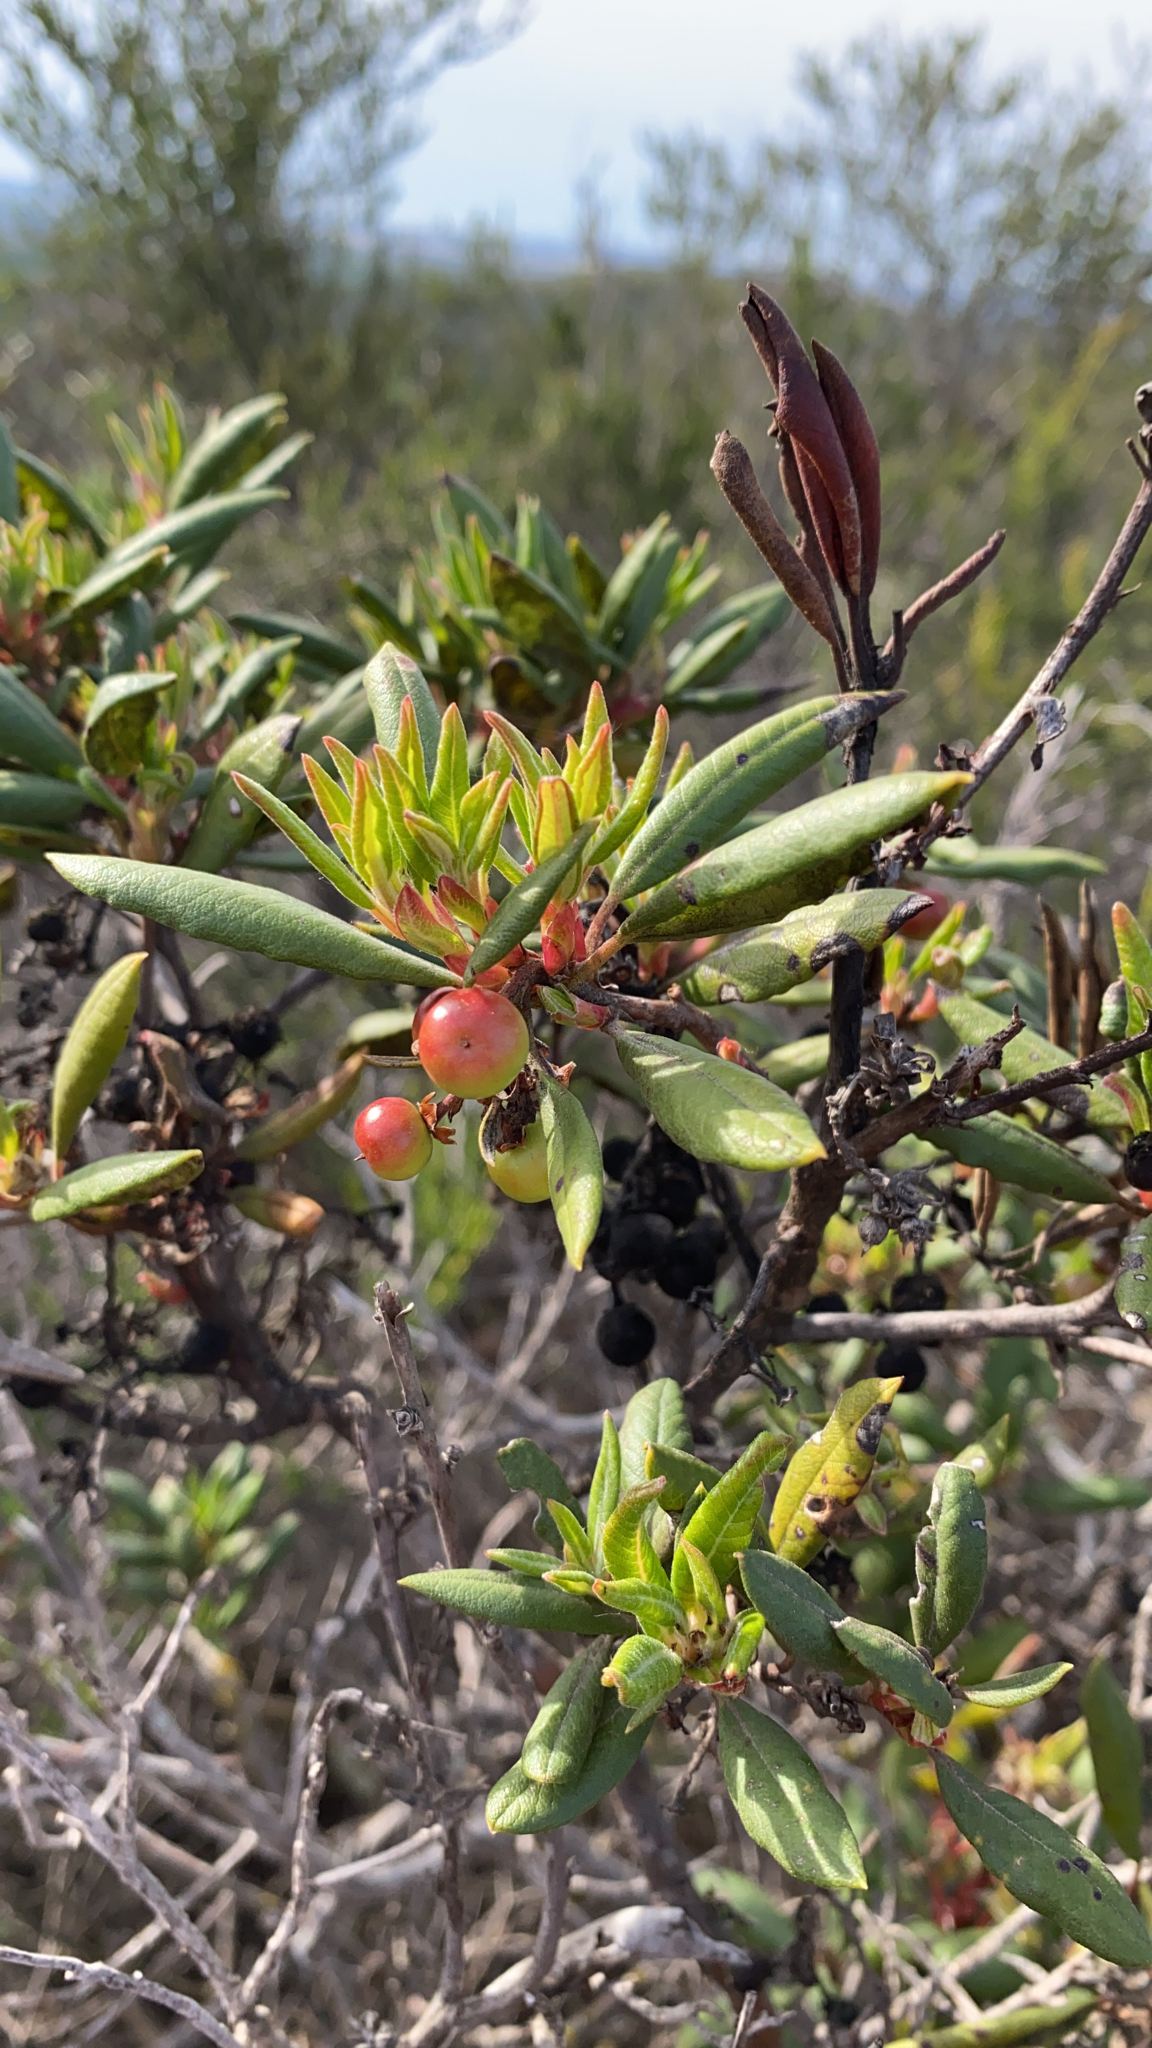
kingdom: Plantae
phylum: Tracheophyta
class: Magnoliopsida
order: Ericales
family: Ericaceae
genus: Arctostaphylos
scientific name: Arctostaphylos bicolor
